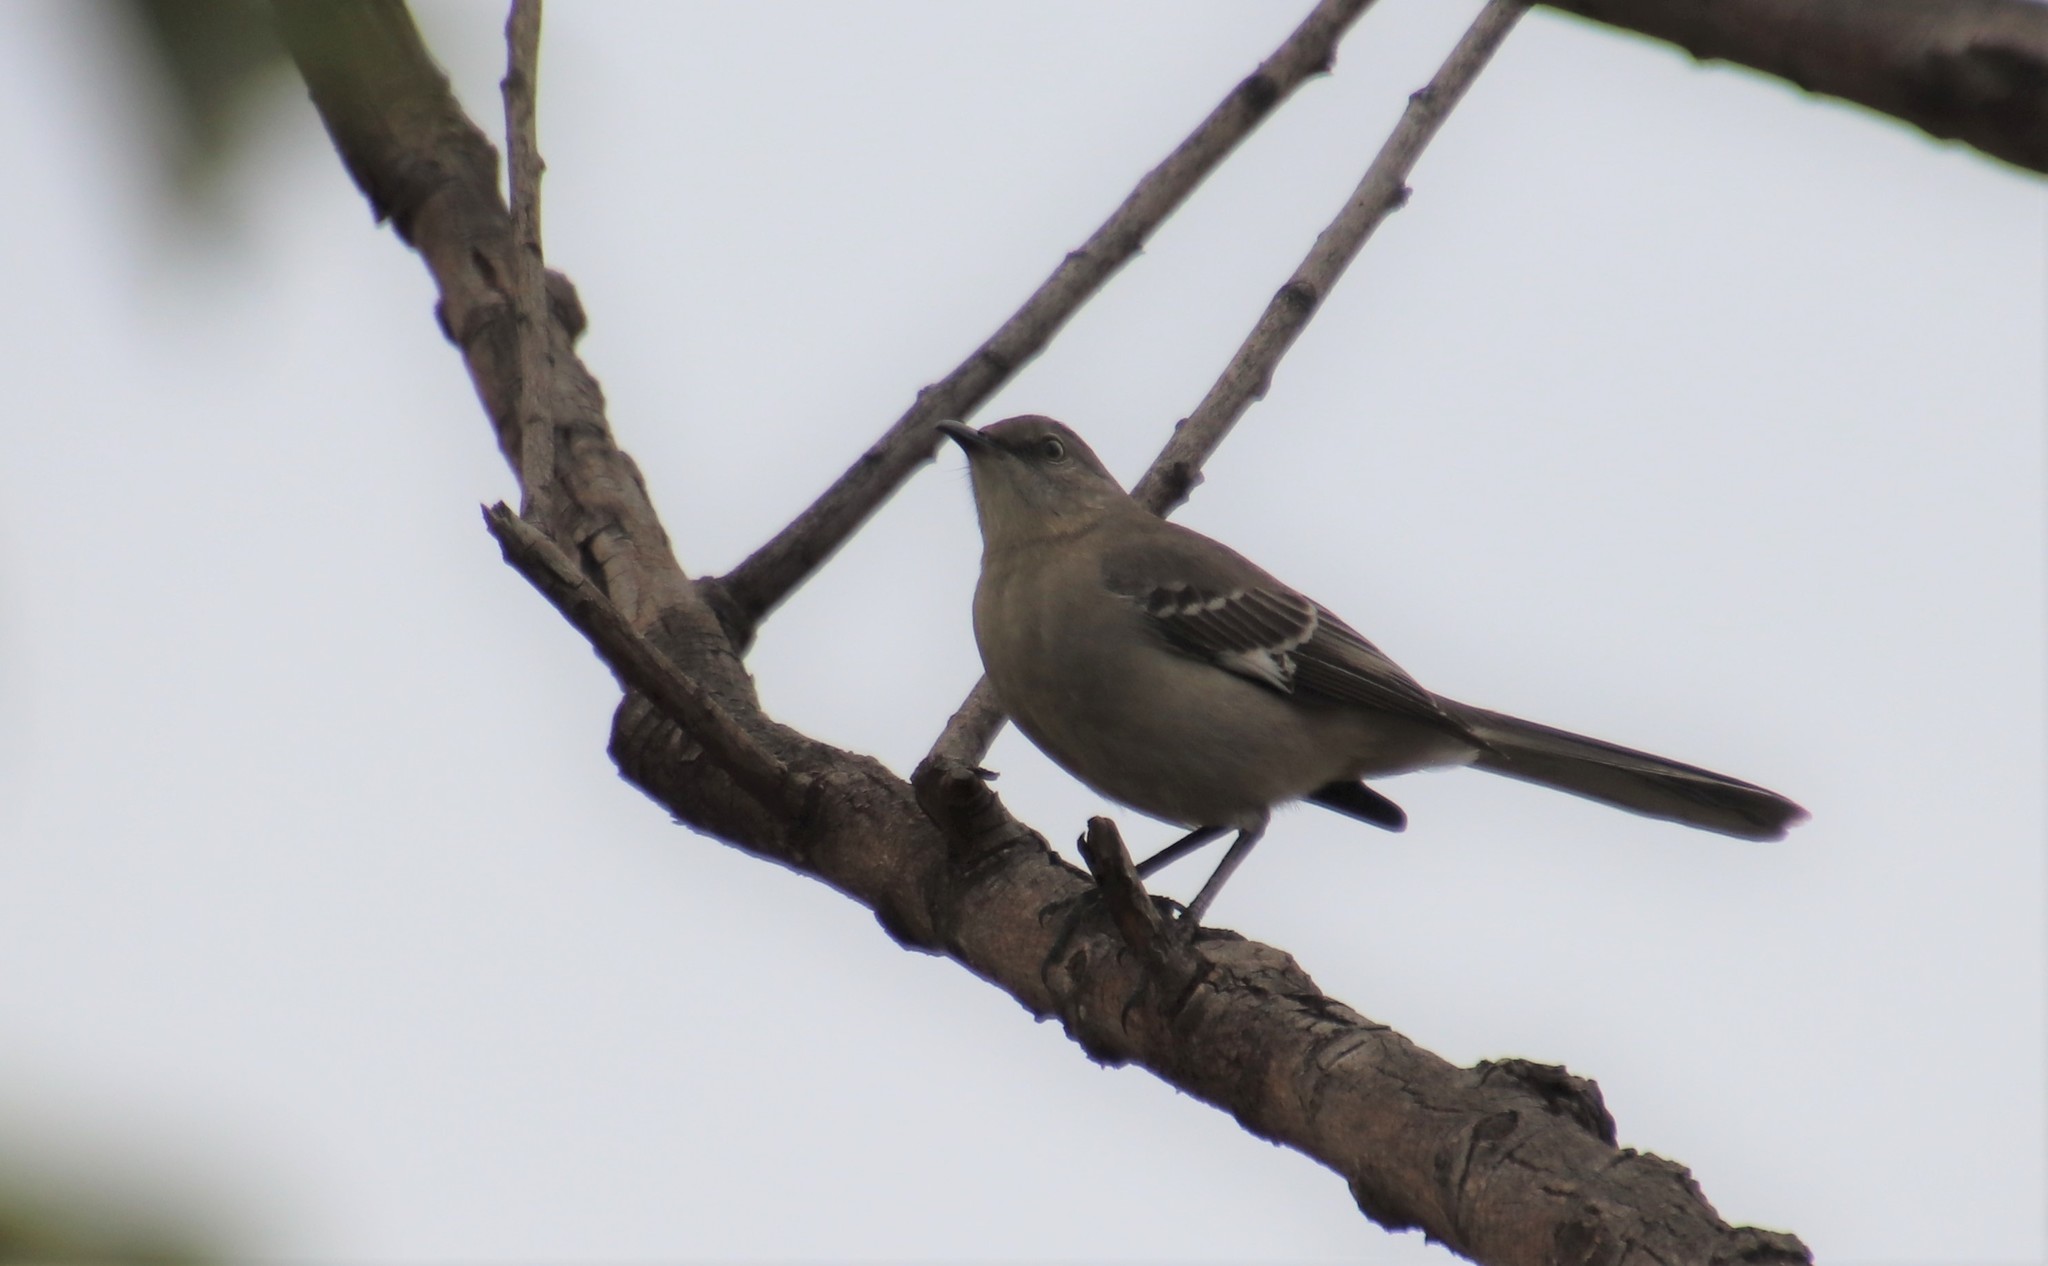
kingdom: Animalia
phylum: Chordata
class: Aves
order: Passeriformes
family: Mimidae
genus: Mimus
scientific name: Mimus polyglottos
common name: Northern mockingbird
